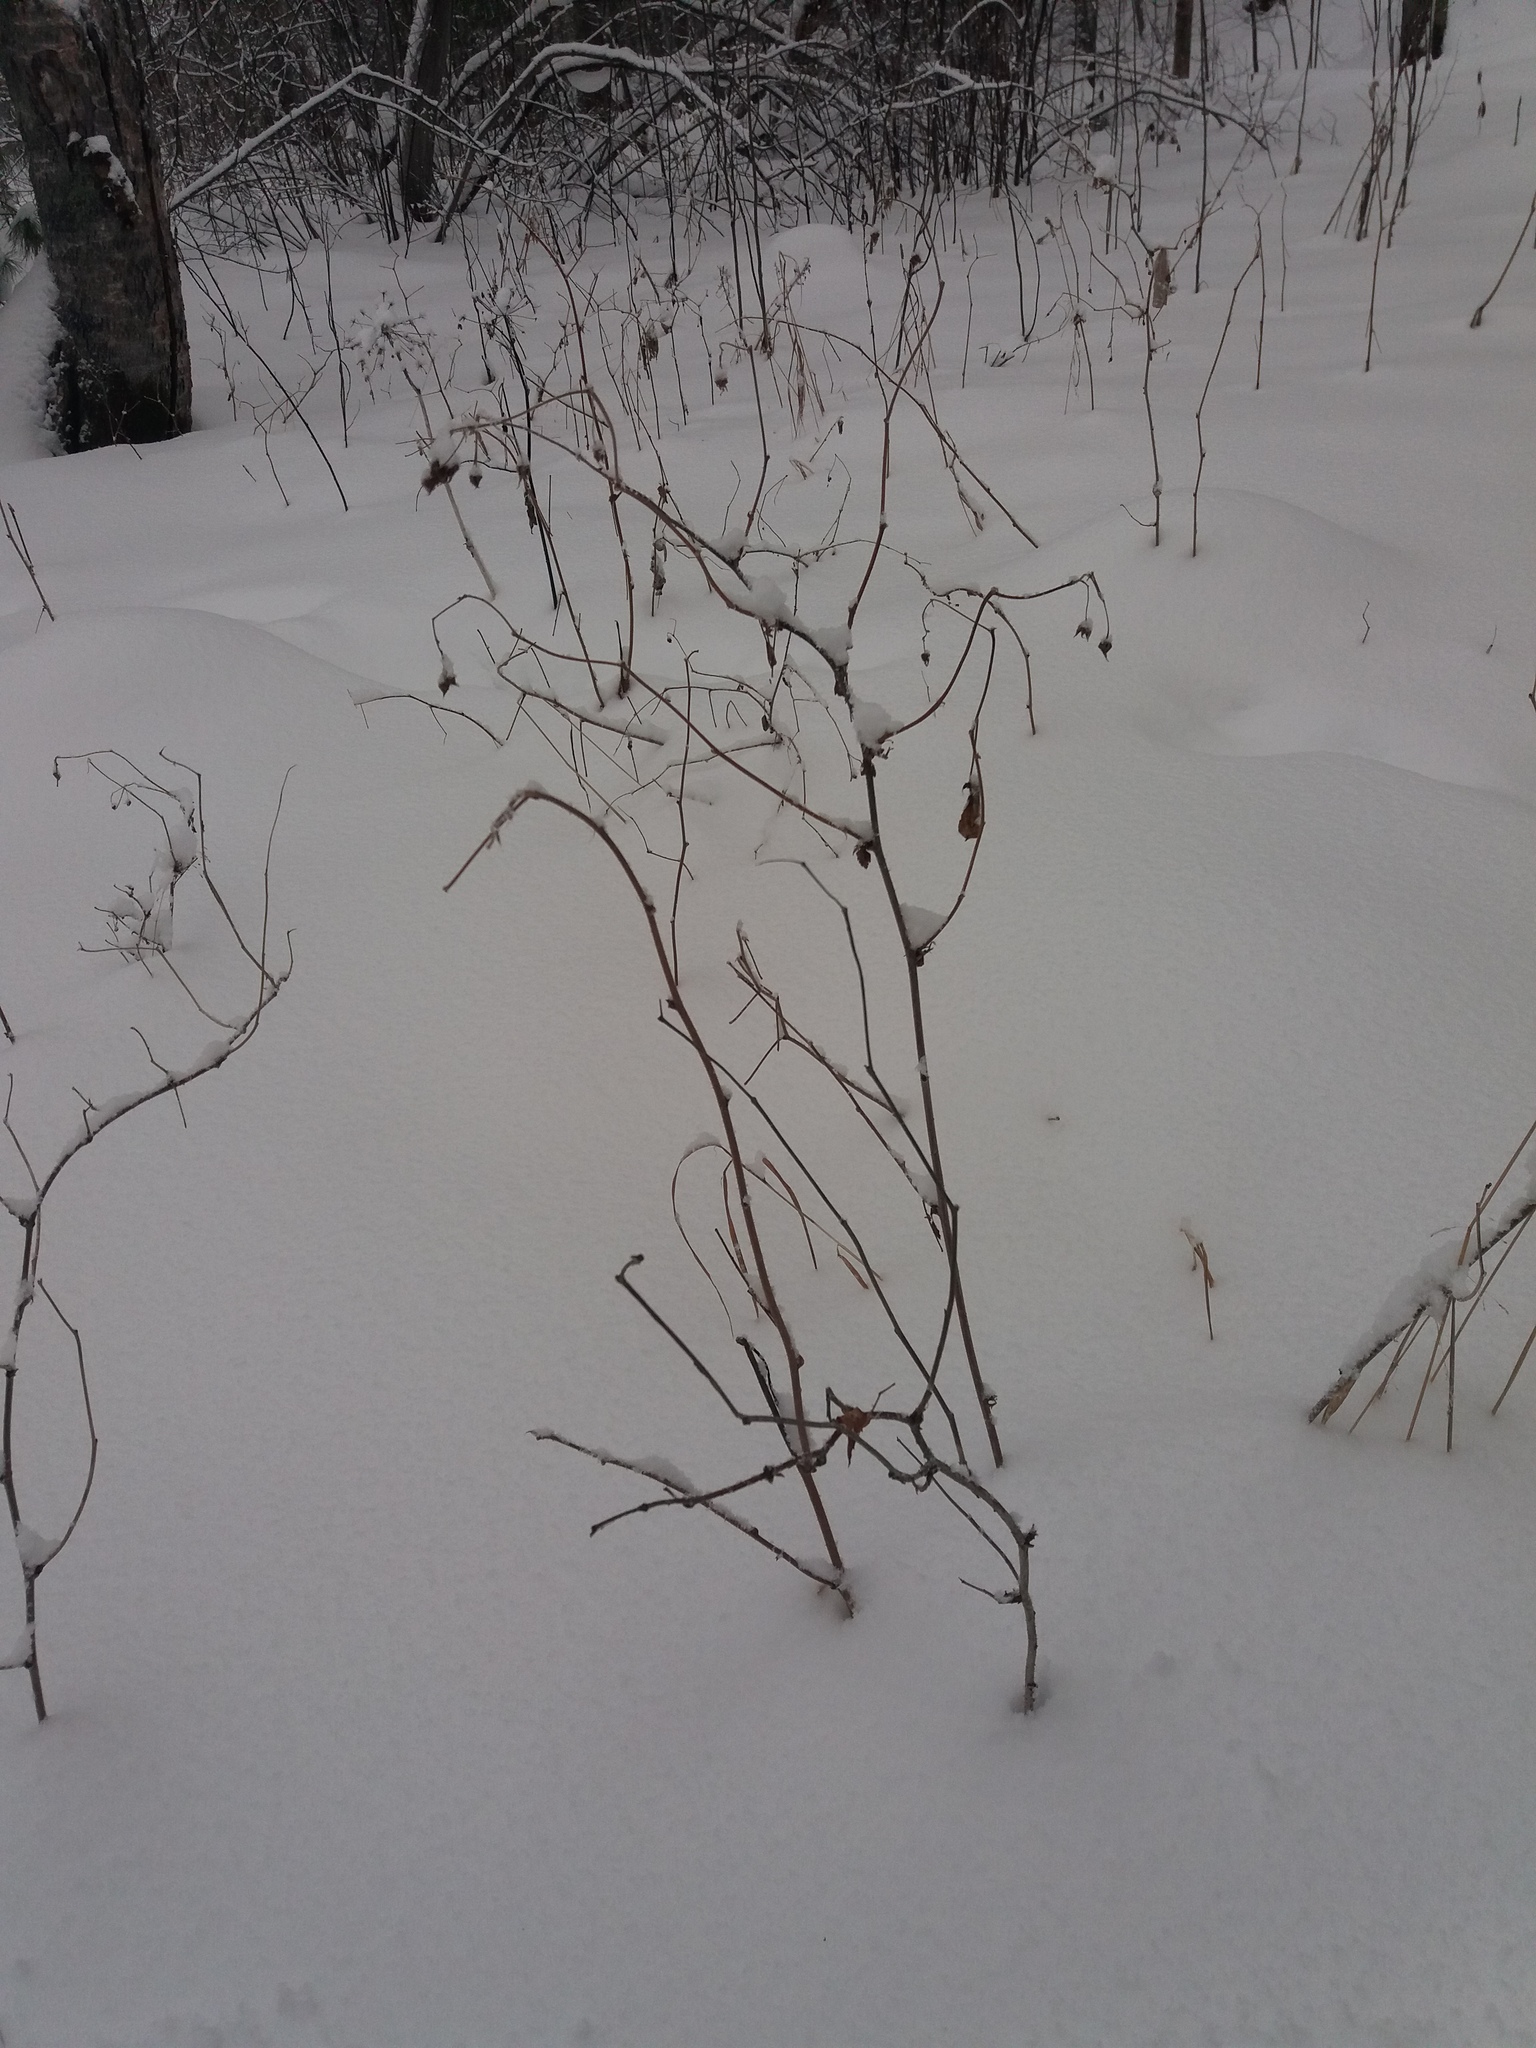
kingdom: Plantae
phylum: Tracheophyta
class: Magnoliopsida
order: Rosales
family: Rosaceae
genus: Rubus
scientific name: Rubus idaeus
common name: Raspberry
